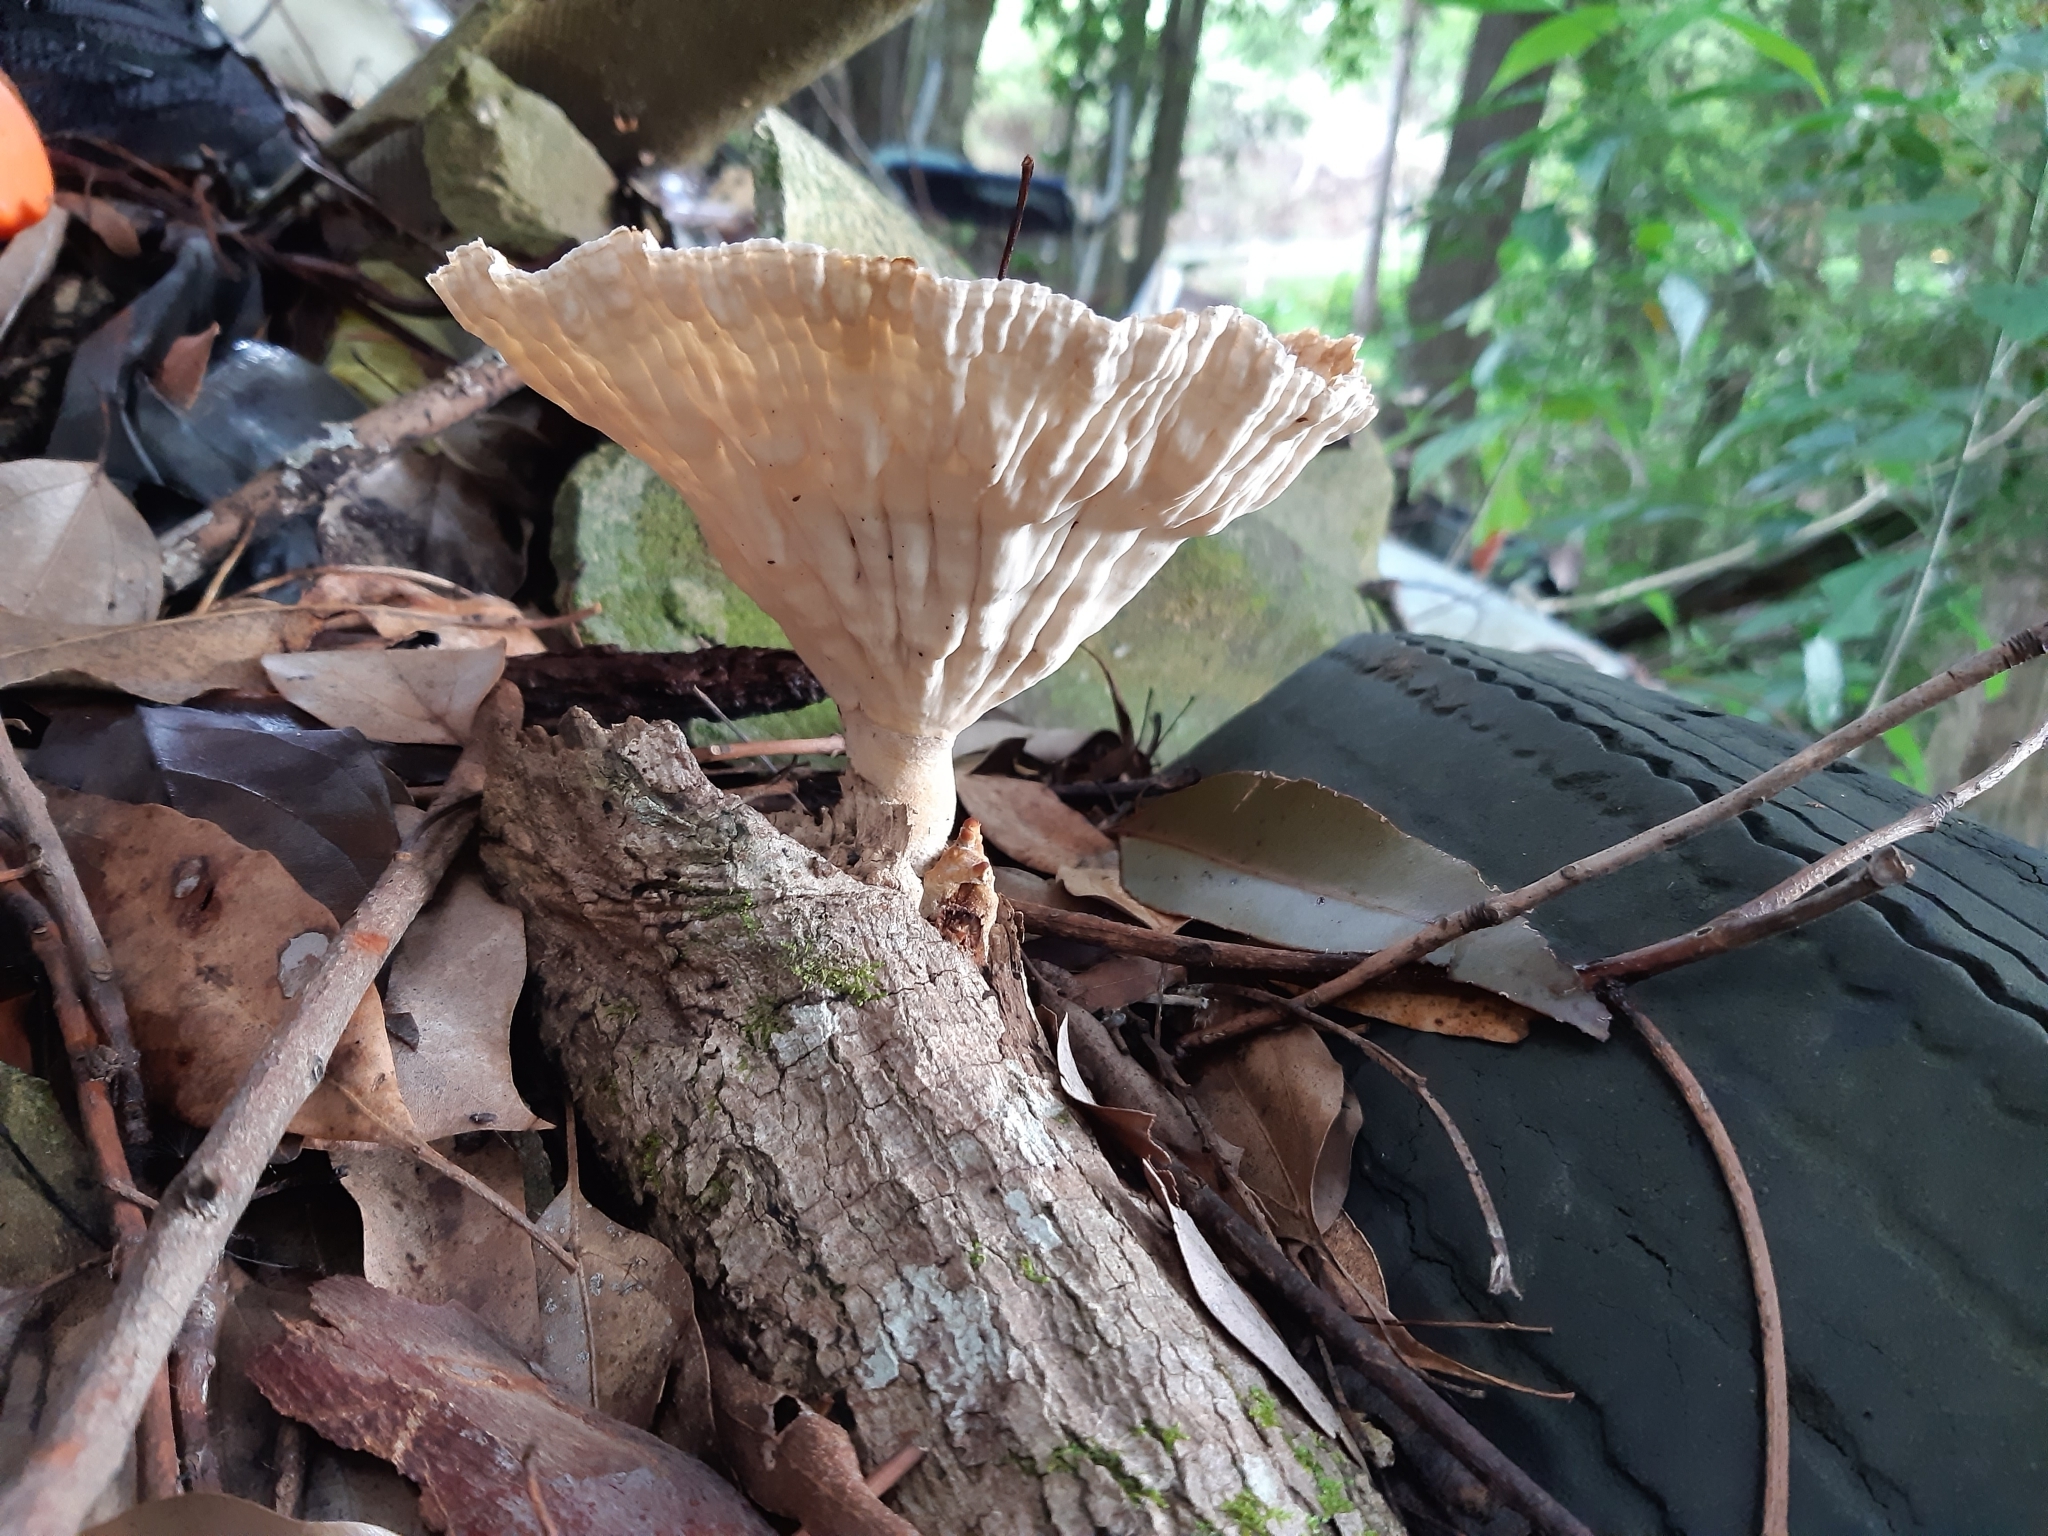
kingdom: Fungi
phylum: Basidiomycota
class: Agaricomycetes
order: Polyporales
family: Panaceae
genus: Cymatoderma
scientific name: Cymatoderma elegans
